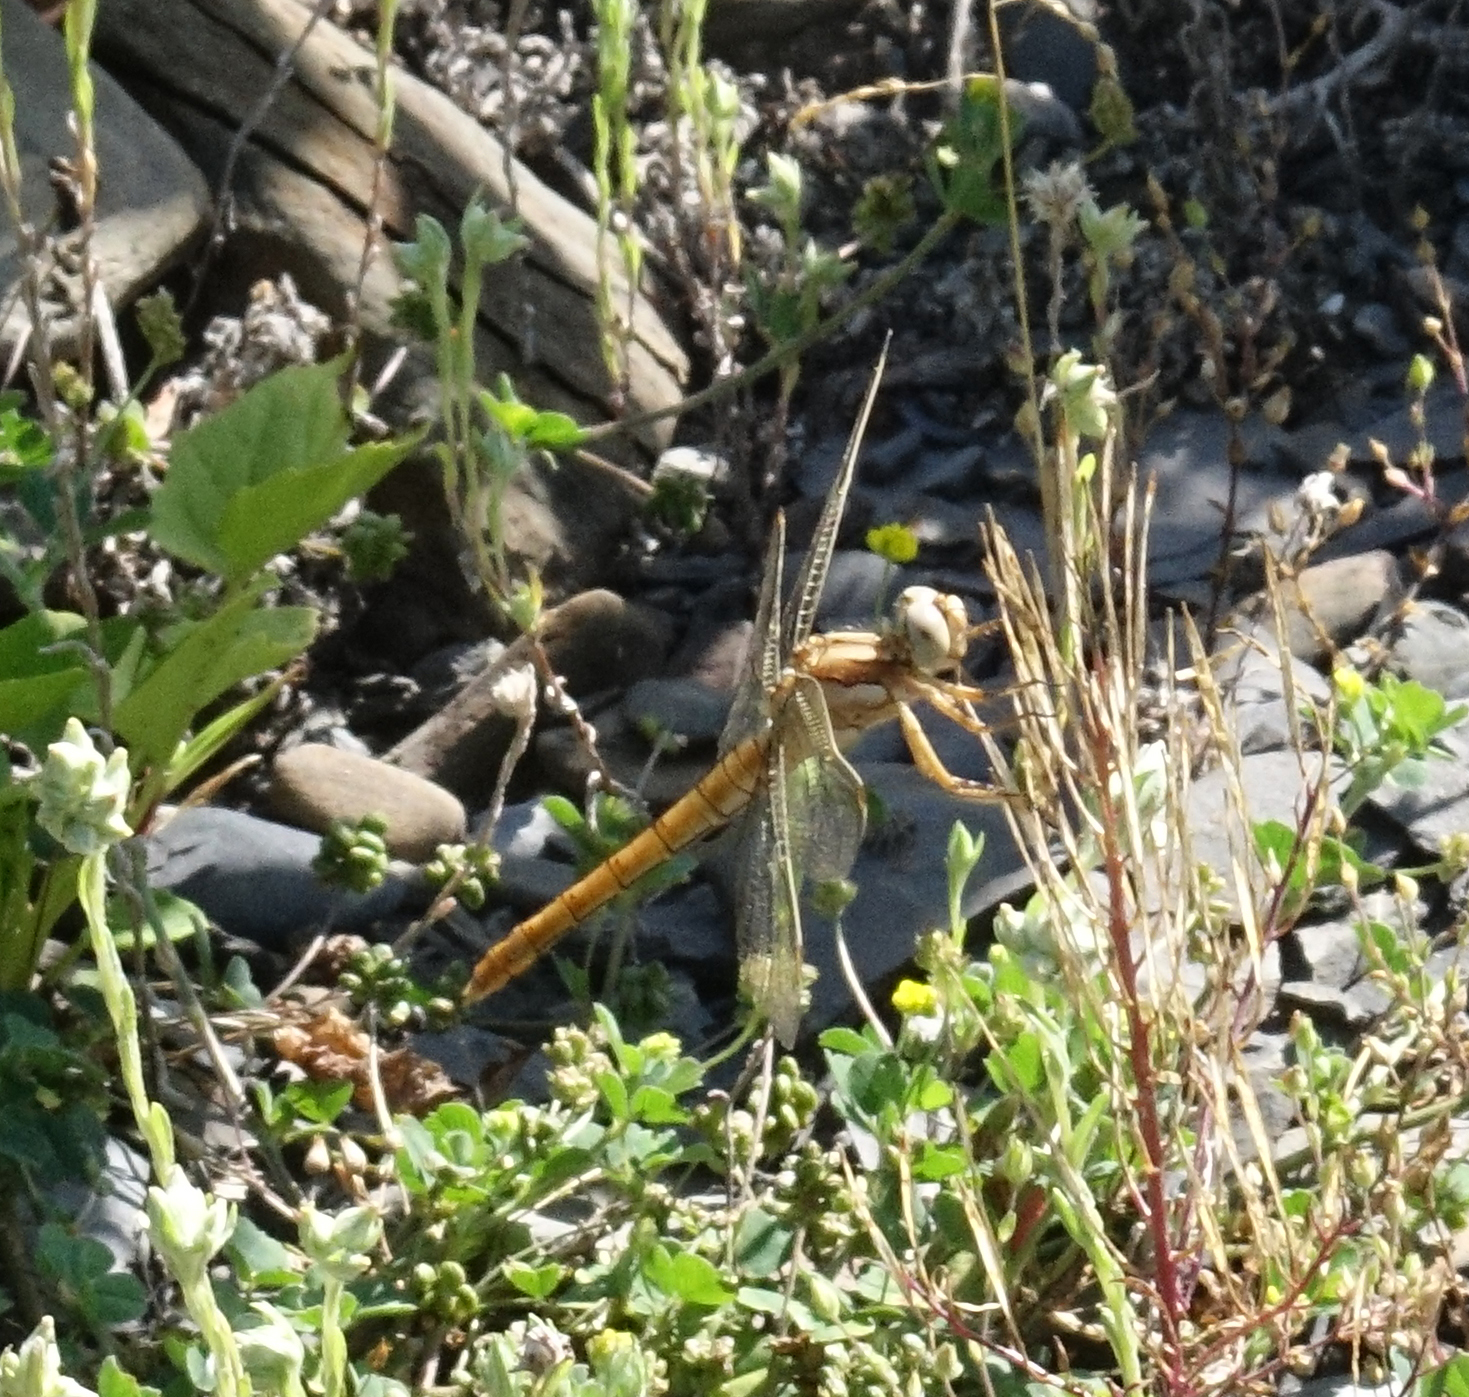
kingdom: Animalia
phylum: Arthropoda
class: Insecta
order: Odonata
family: Libellulidae
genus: Orthetrum
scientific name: Orthetrum brunneum
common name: Southern skimmer
